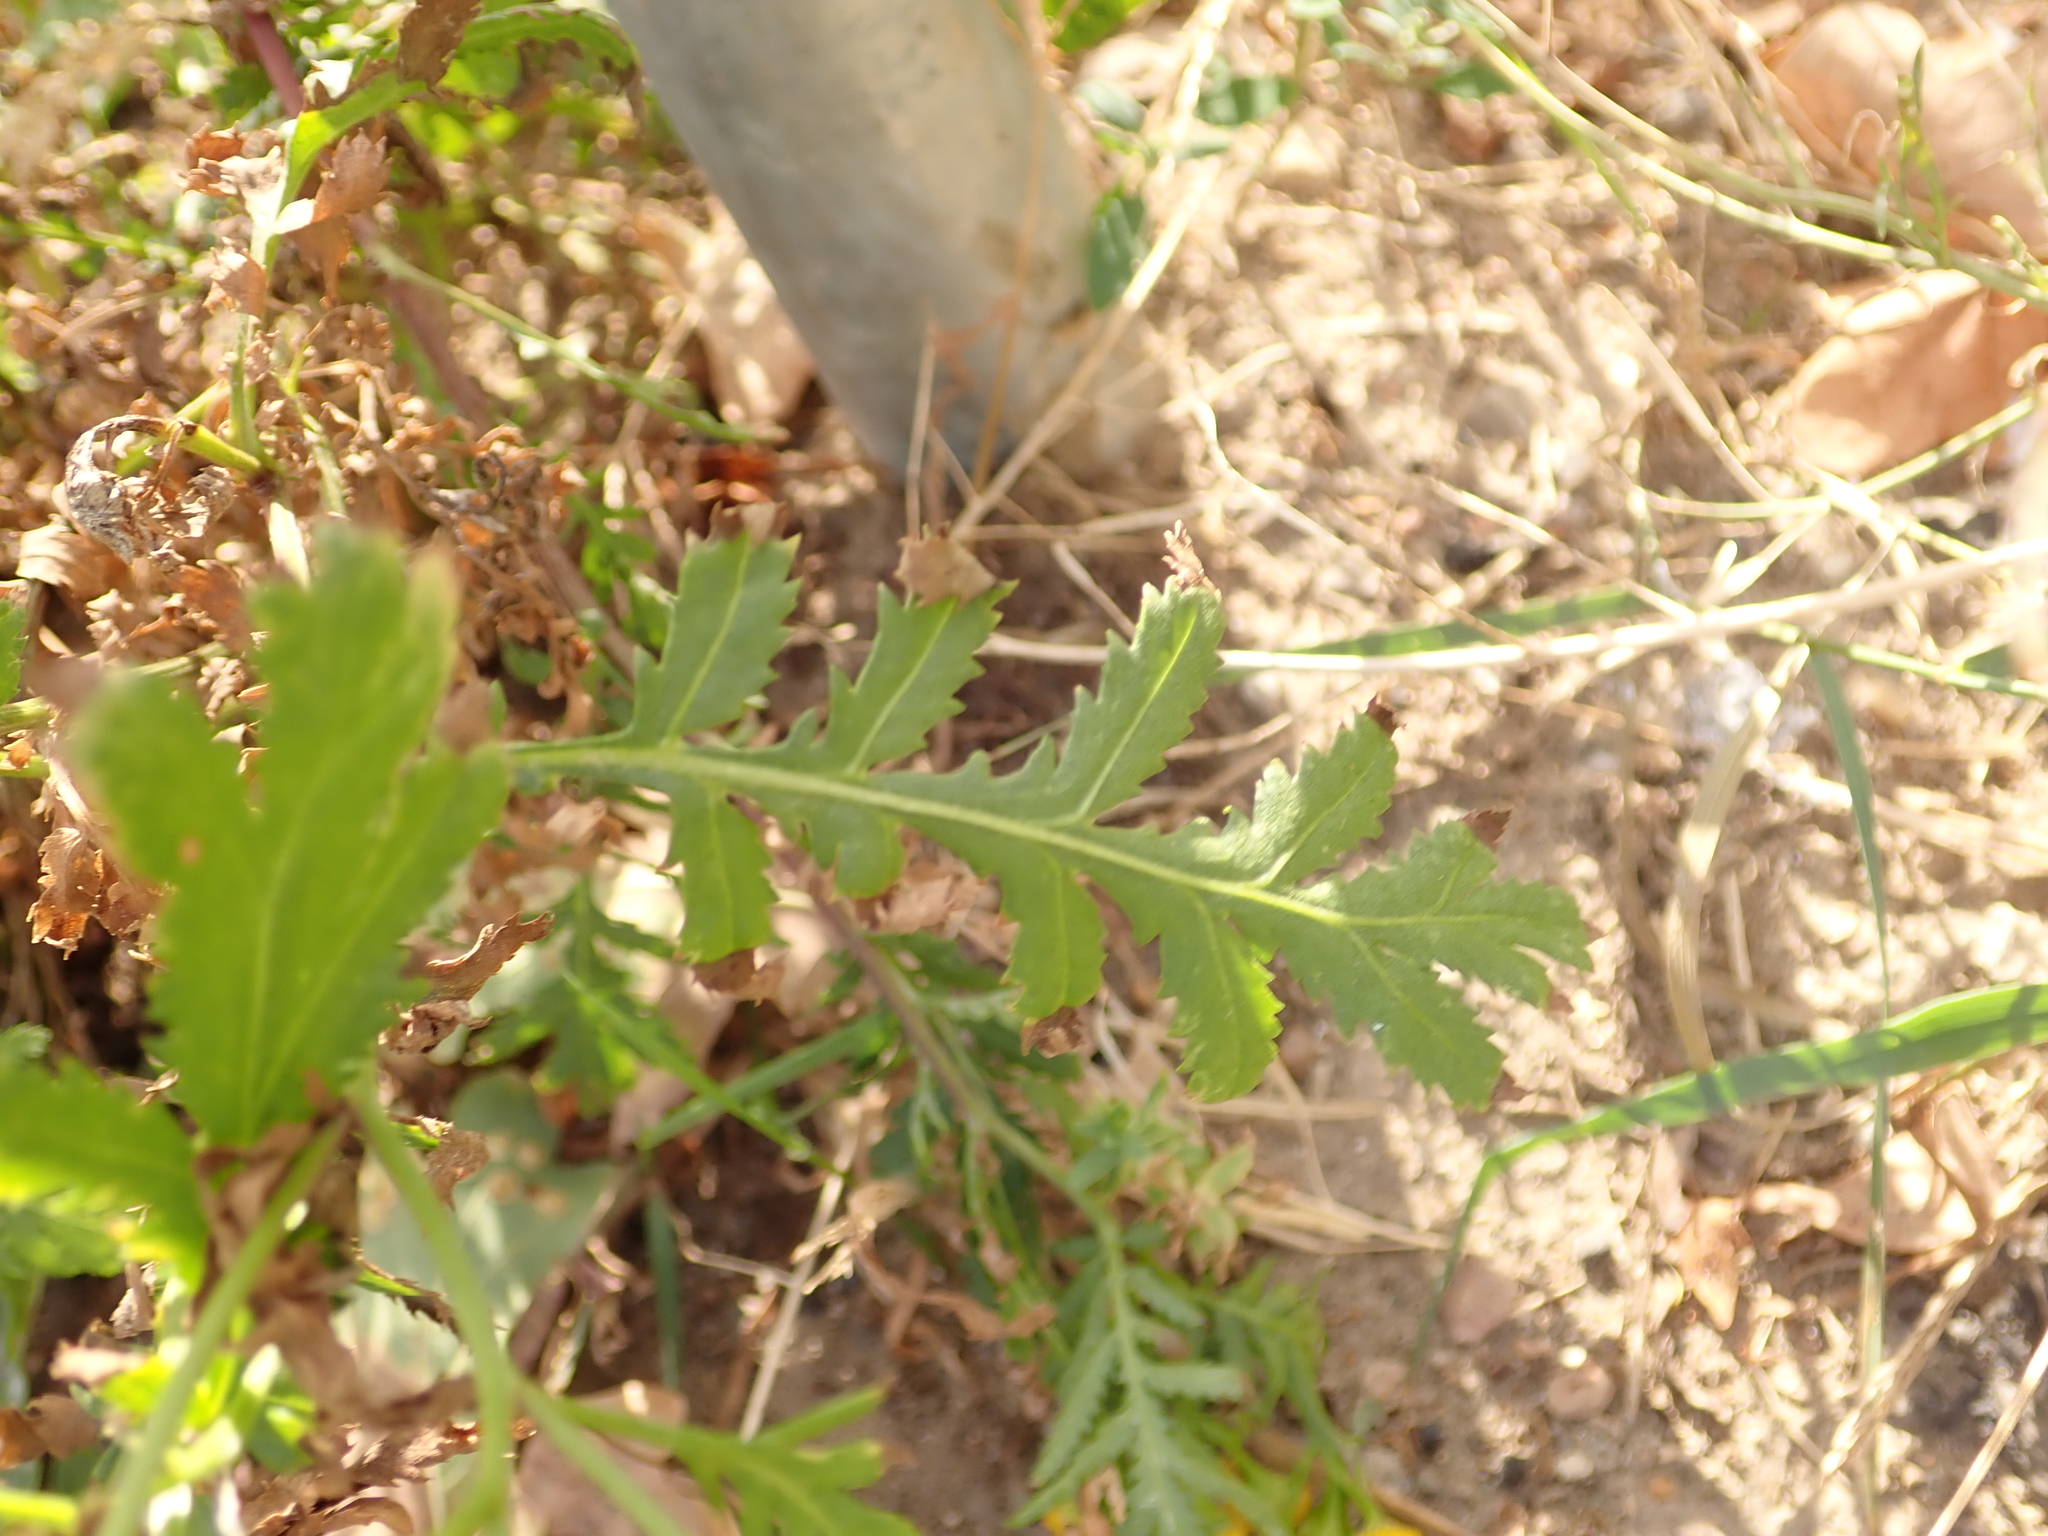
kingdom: Plantae
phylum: Tracheophyta
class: Magnoliopsida
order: Asterales
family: Asteraceae
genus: Tanacetum
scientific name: Tanacetum vulgare
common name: Common tansy
